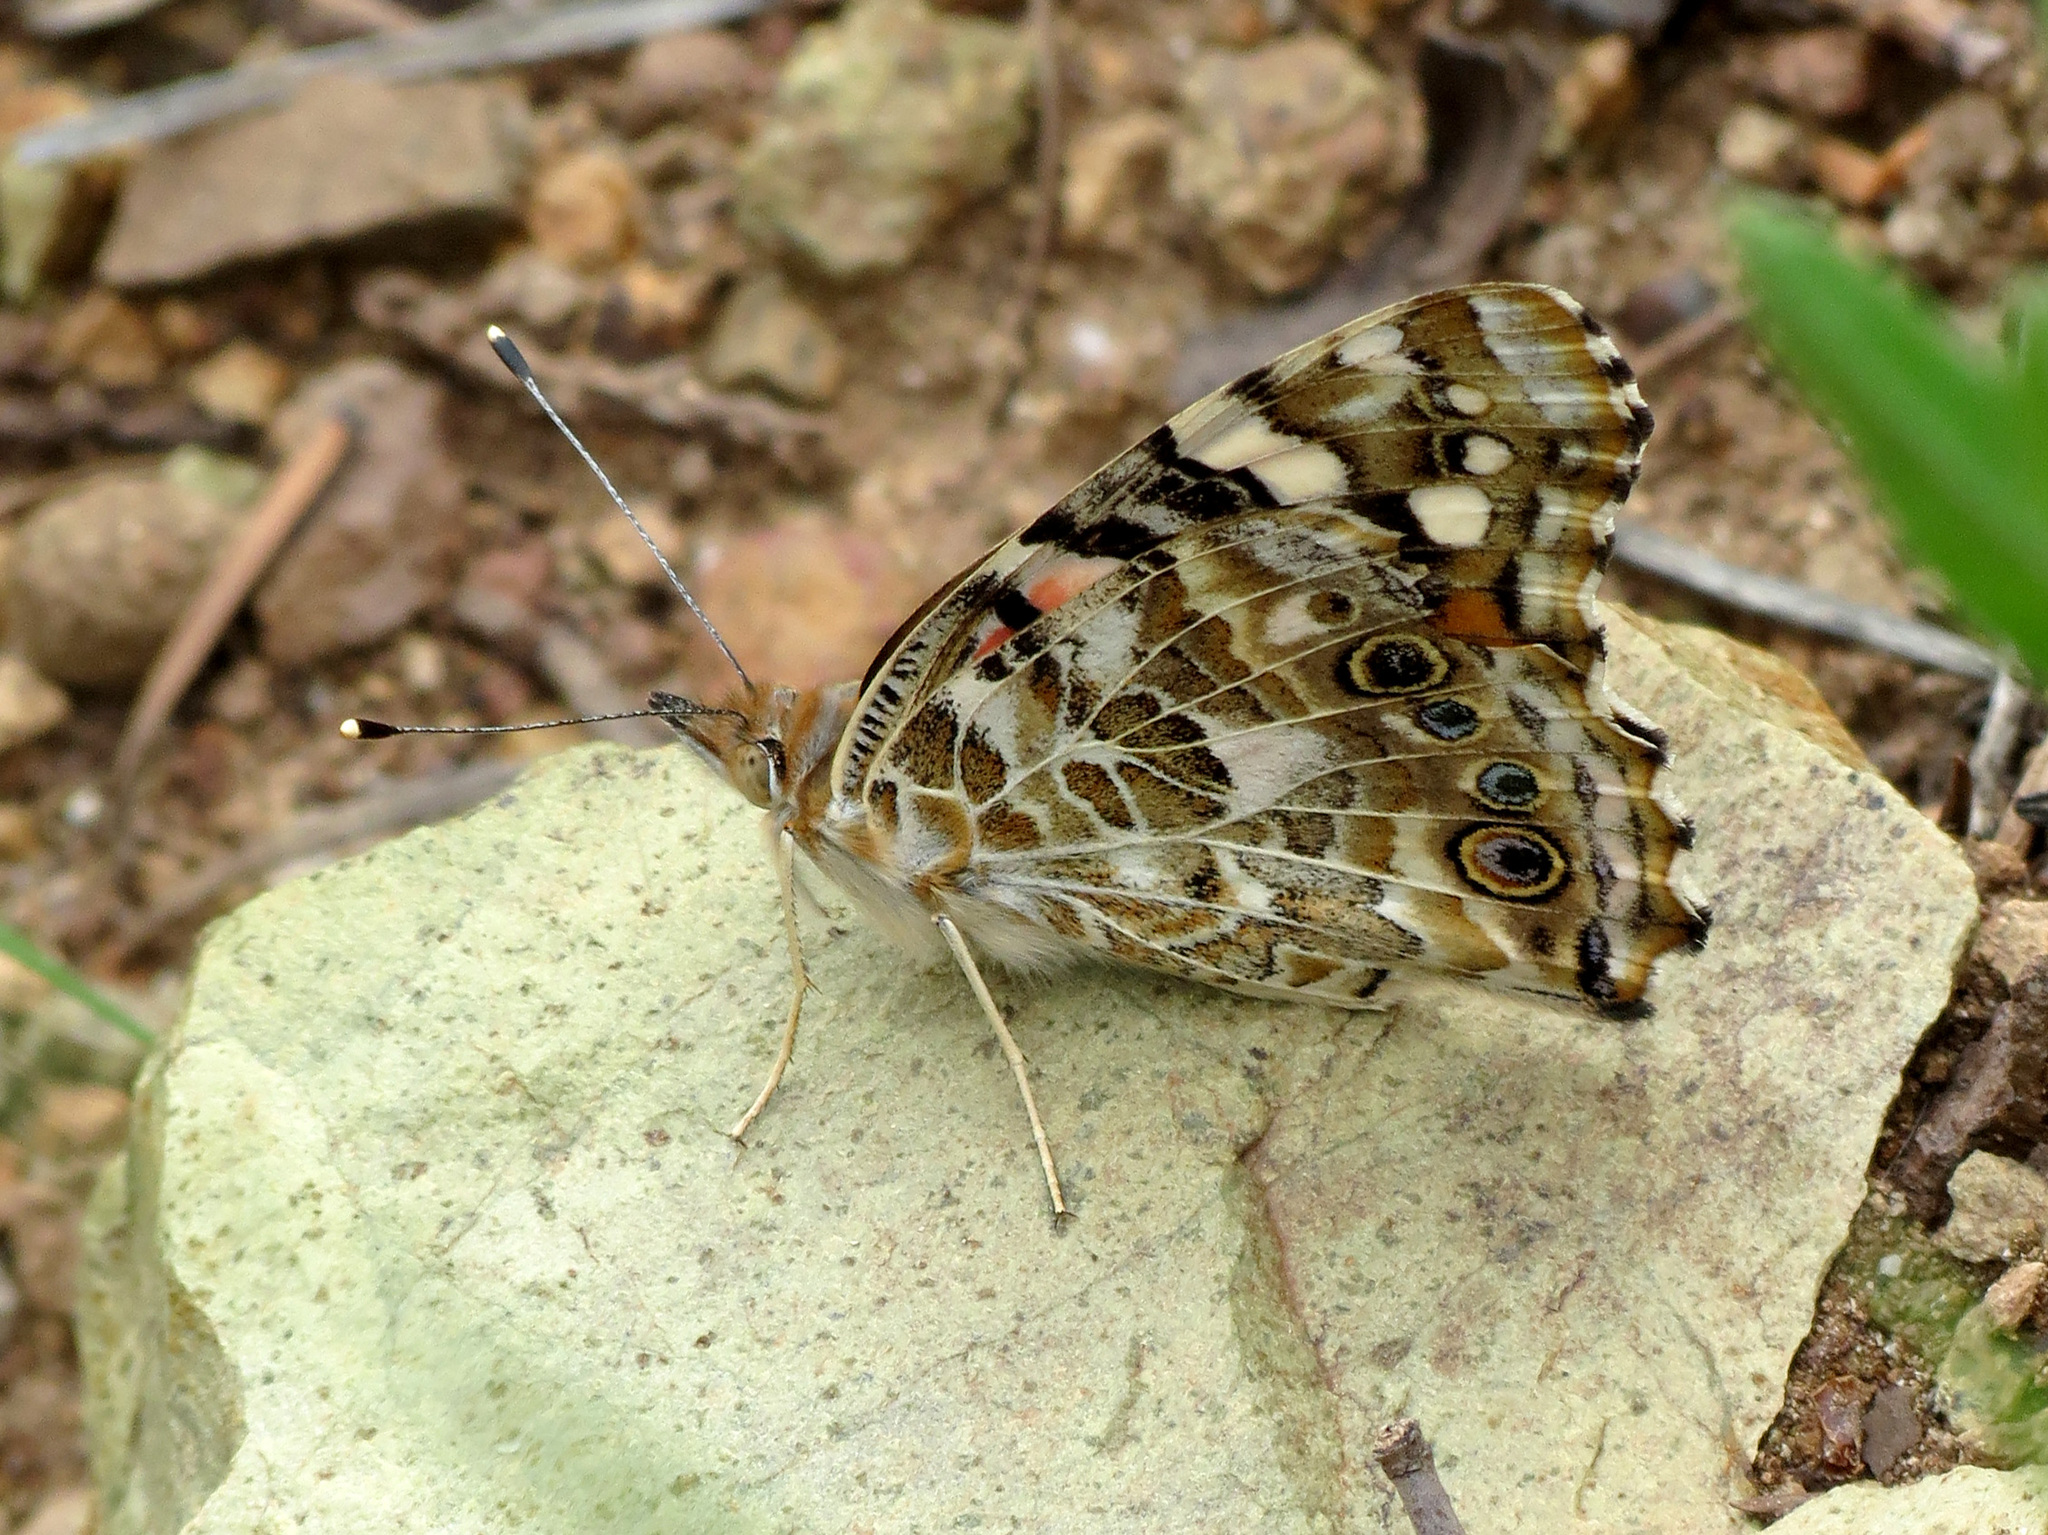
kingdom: Animalia
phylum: Arthropoda
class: Insecta
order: Lepidoptera
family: Nymphalidae
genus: Vanessa
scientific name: Vanessa cardui
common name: Painted lady
